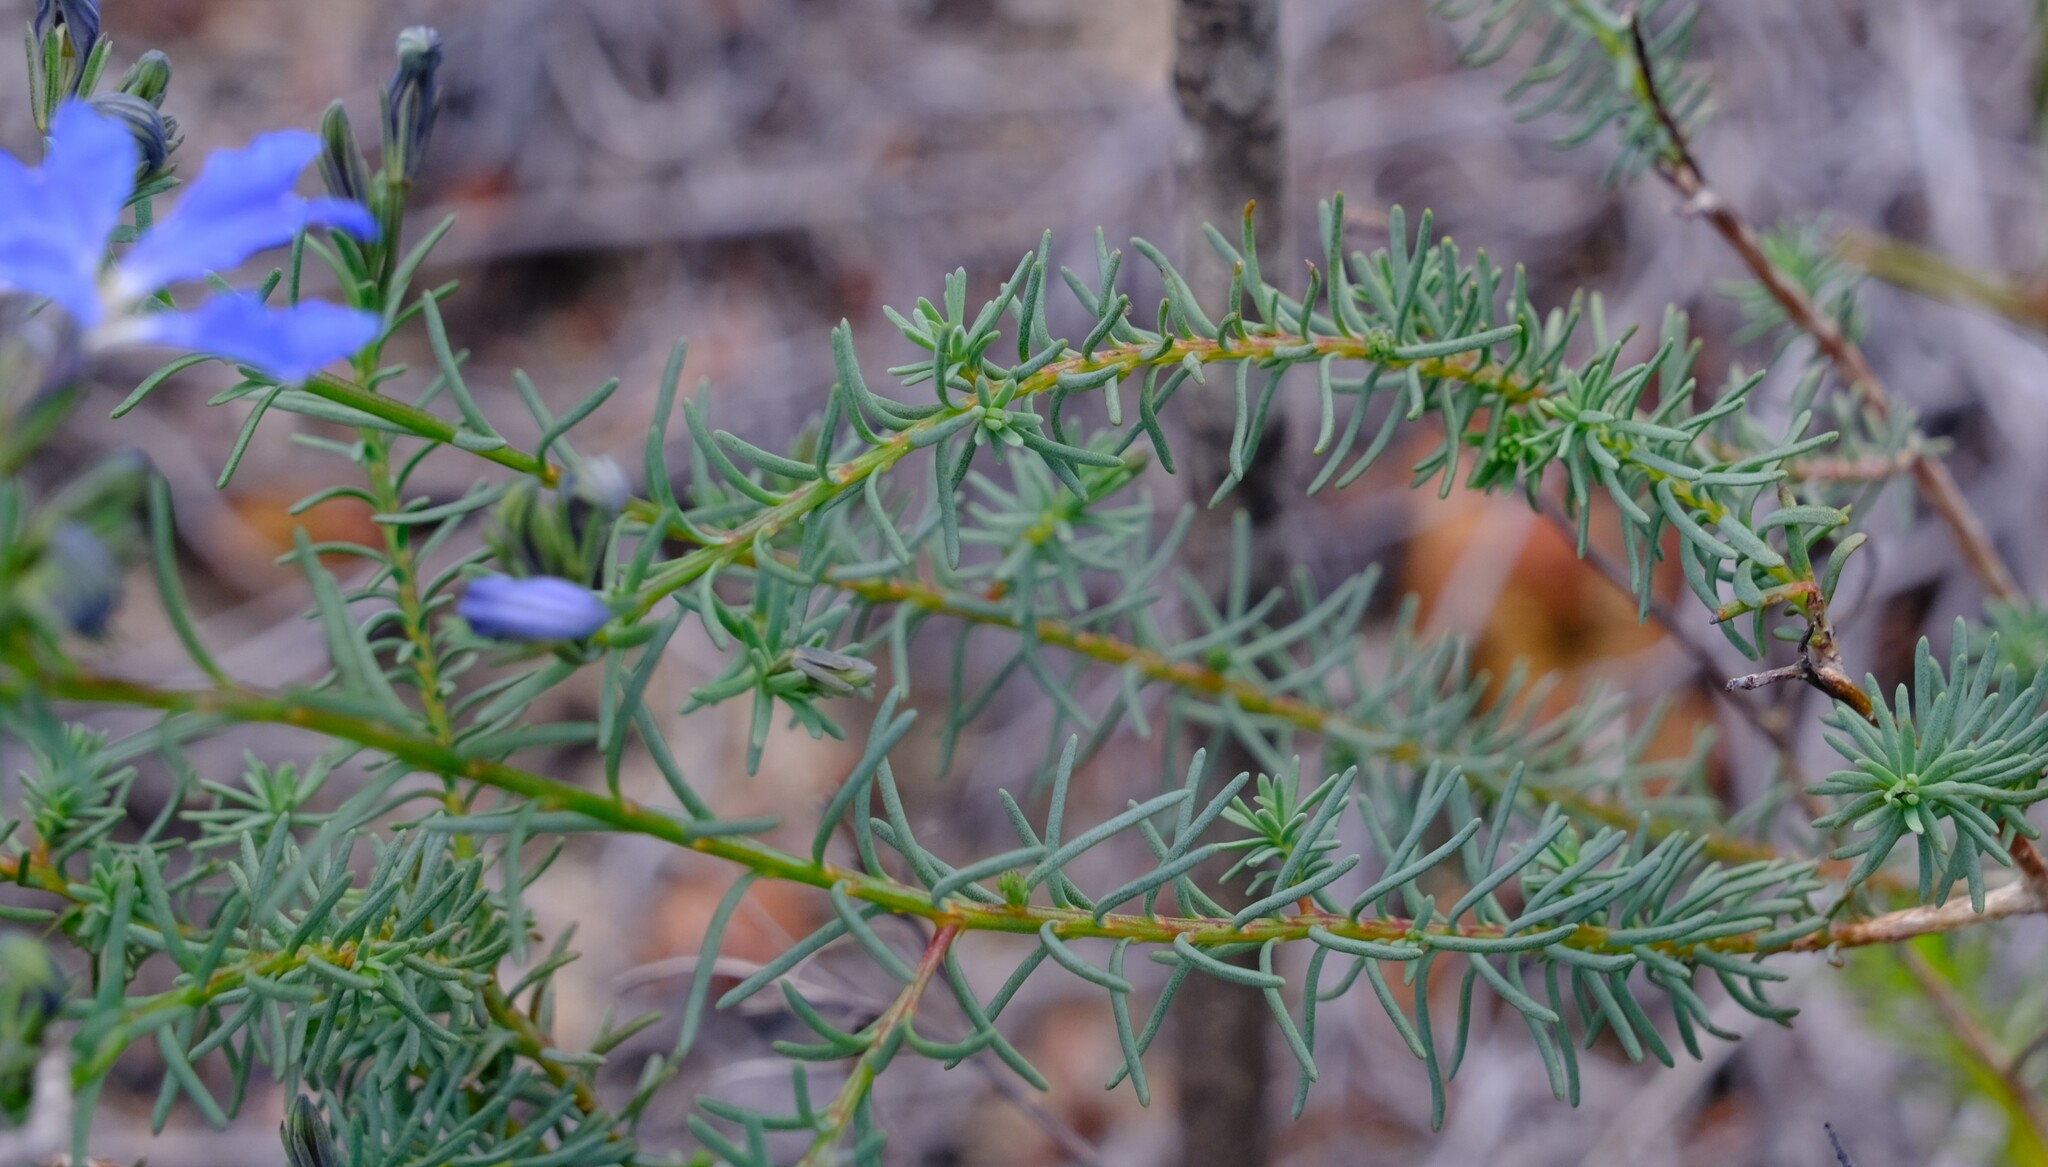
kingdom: Plantae
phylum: Tracheophyta
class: Magnoliopsida
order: Asterales
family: Goodeniaceae
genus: Lechenaultia
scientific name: Lechenaultia biloba
